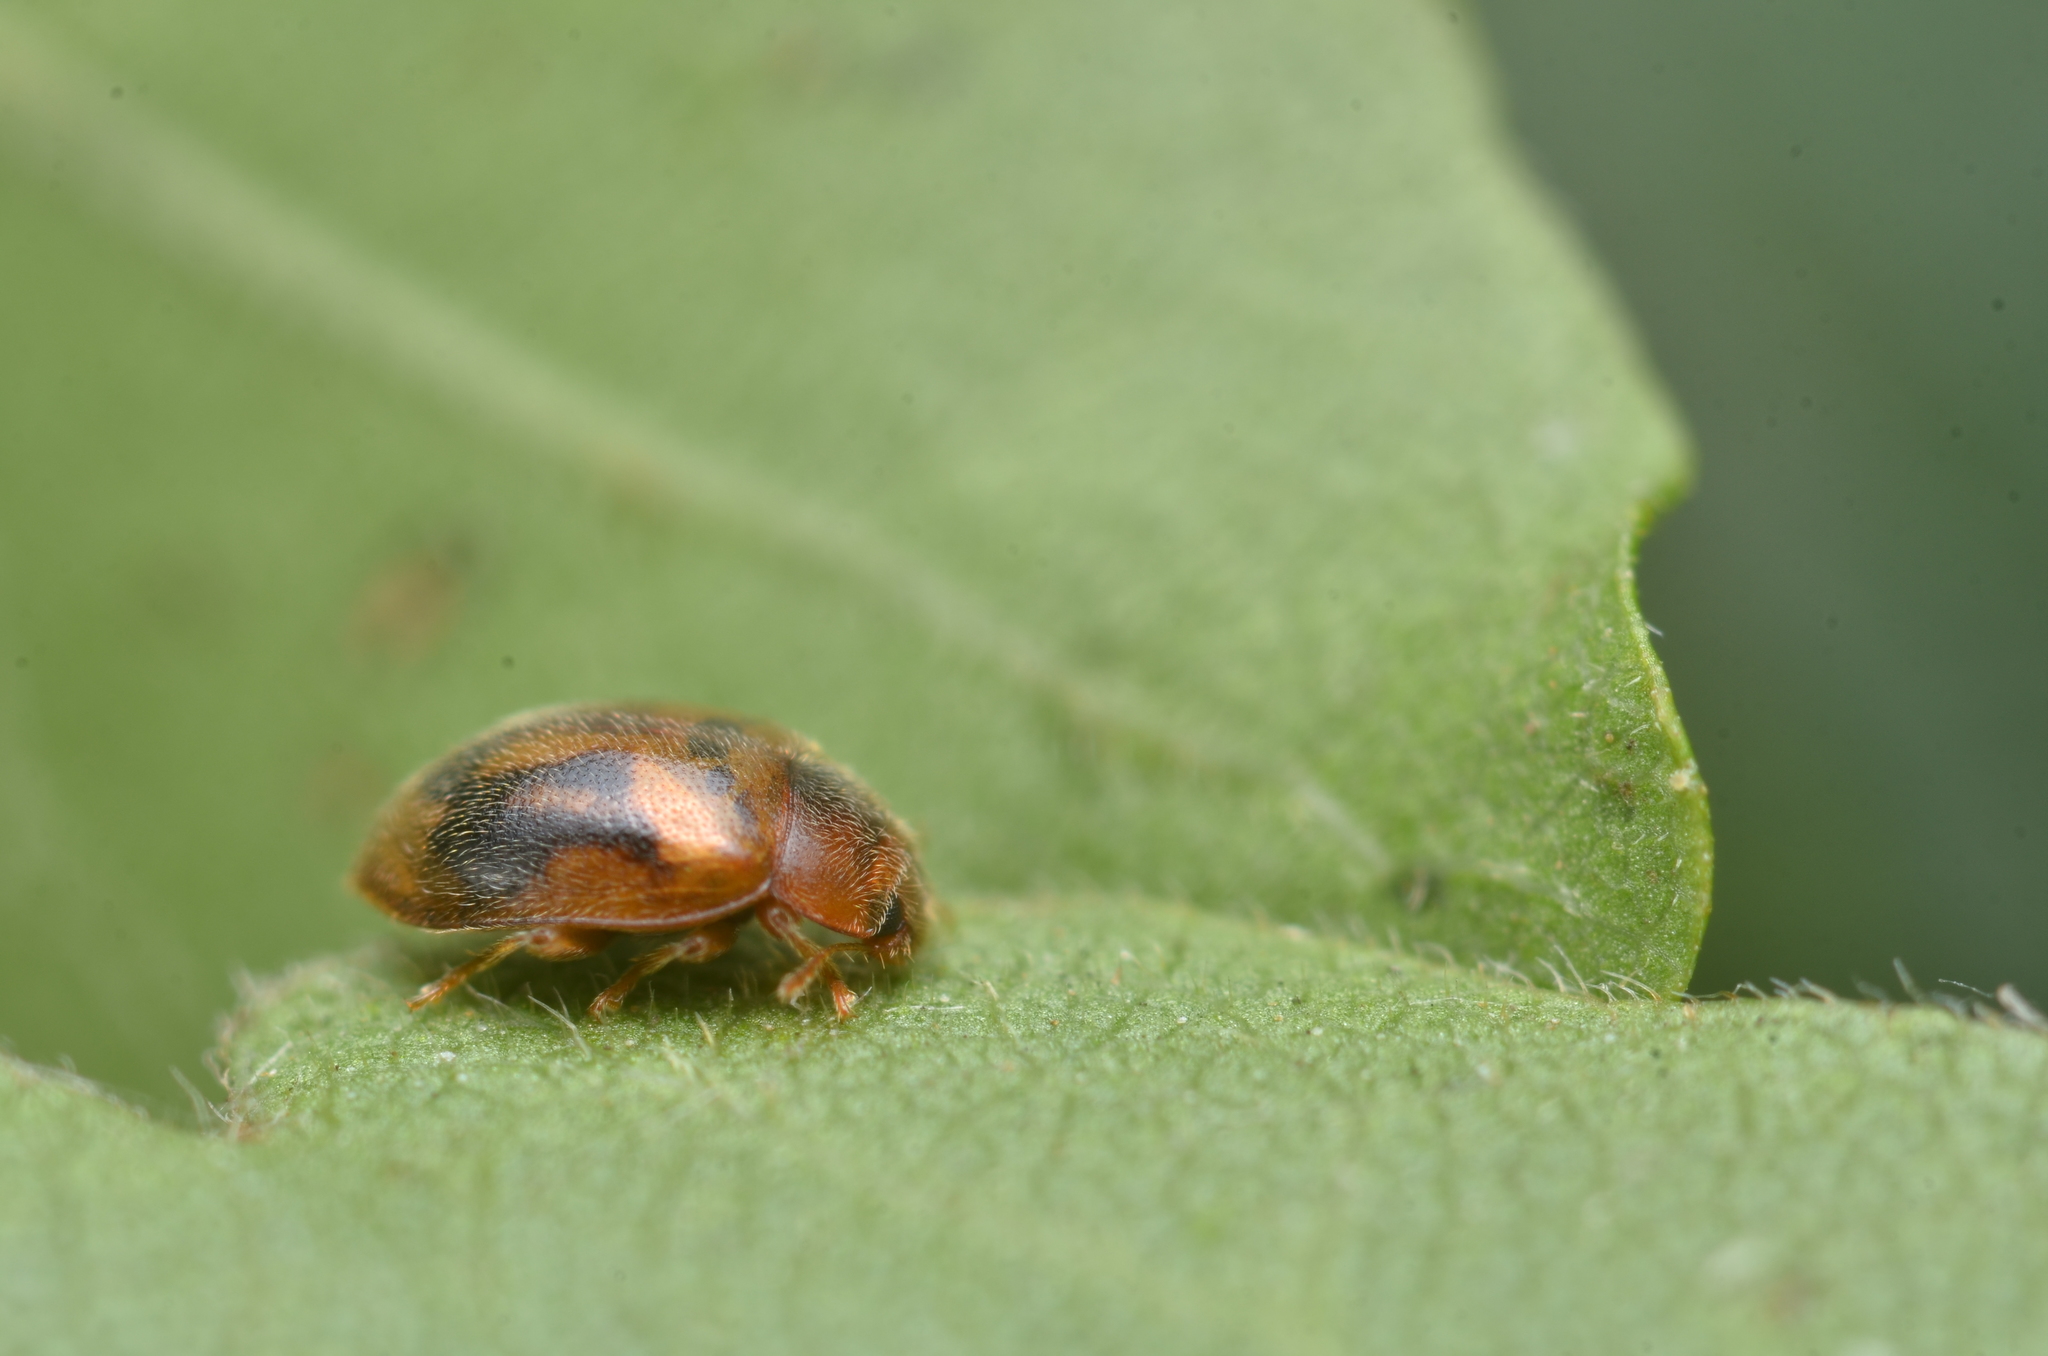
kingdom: Animalia
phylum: Arthropoda
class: Insecta
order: Coleoptera
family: Coccinellidae
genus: Rhyzobius
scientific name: Rhyzobius chrysomeloides
